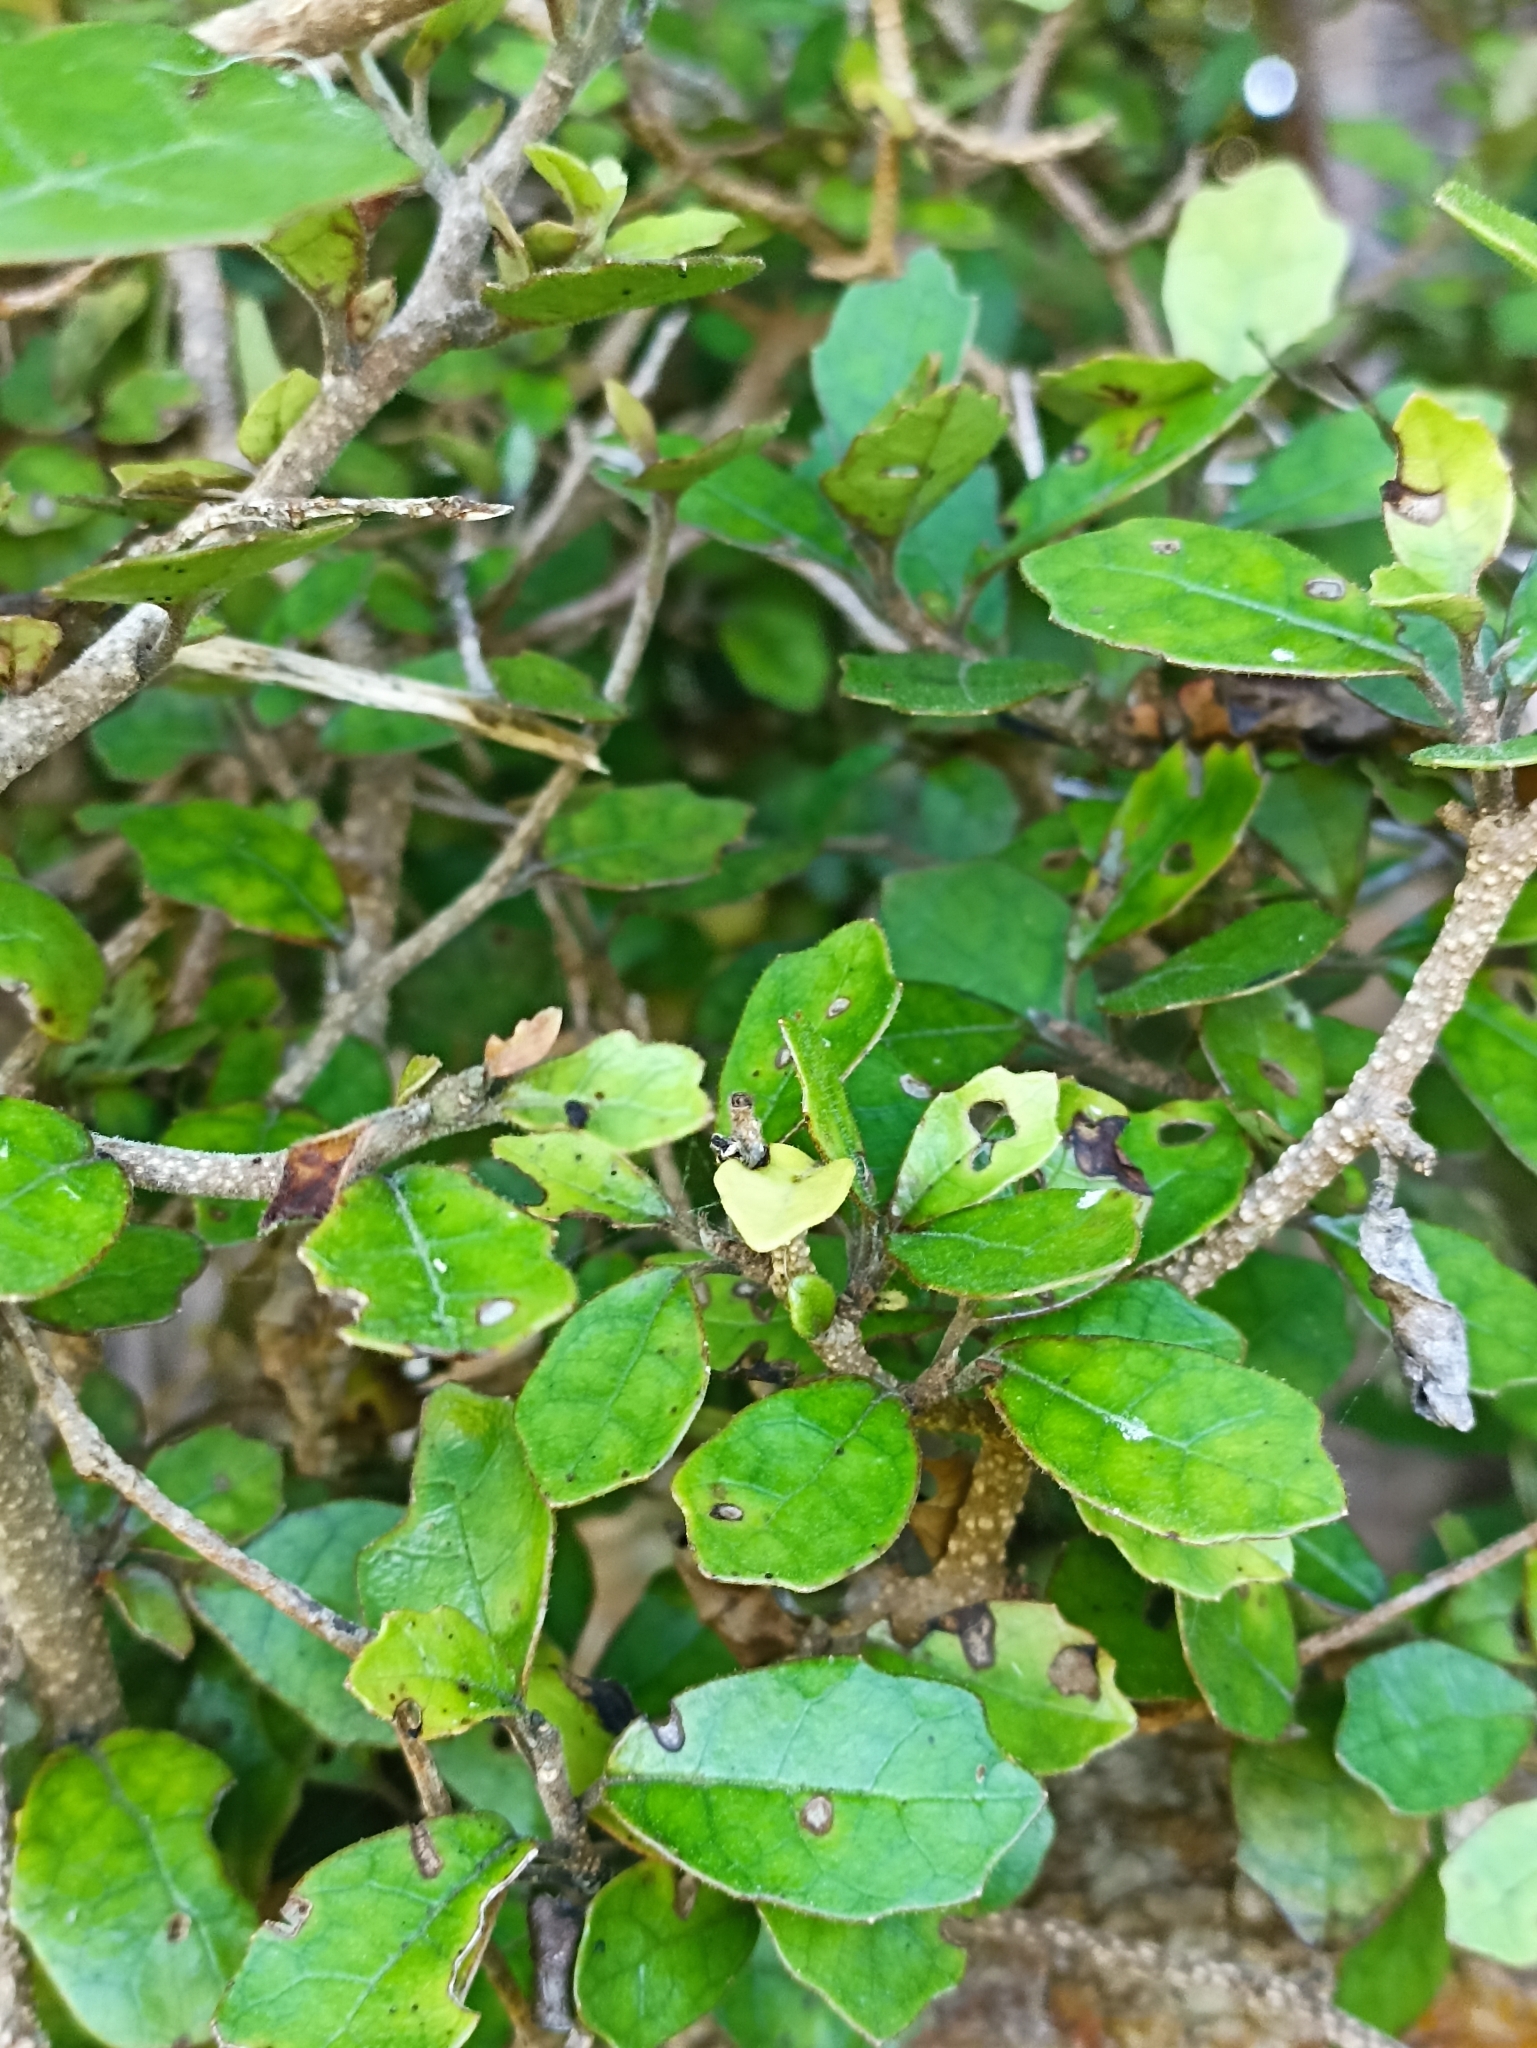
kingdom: Plantae
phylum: Tracheophyta
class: Magnoliopsida
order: Apiales
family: Pennantiaceae
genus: Pennantia
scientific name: Pennantia corymbosa
